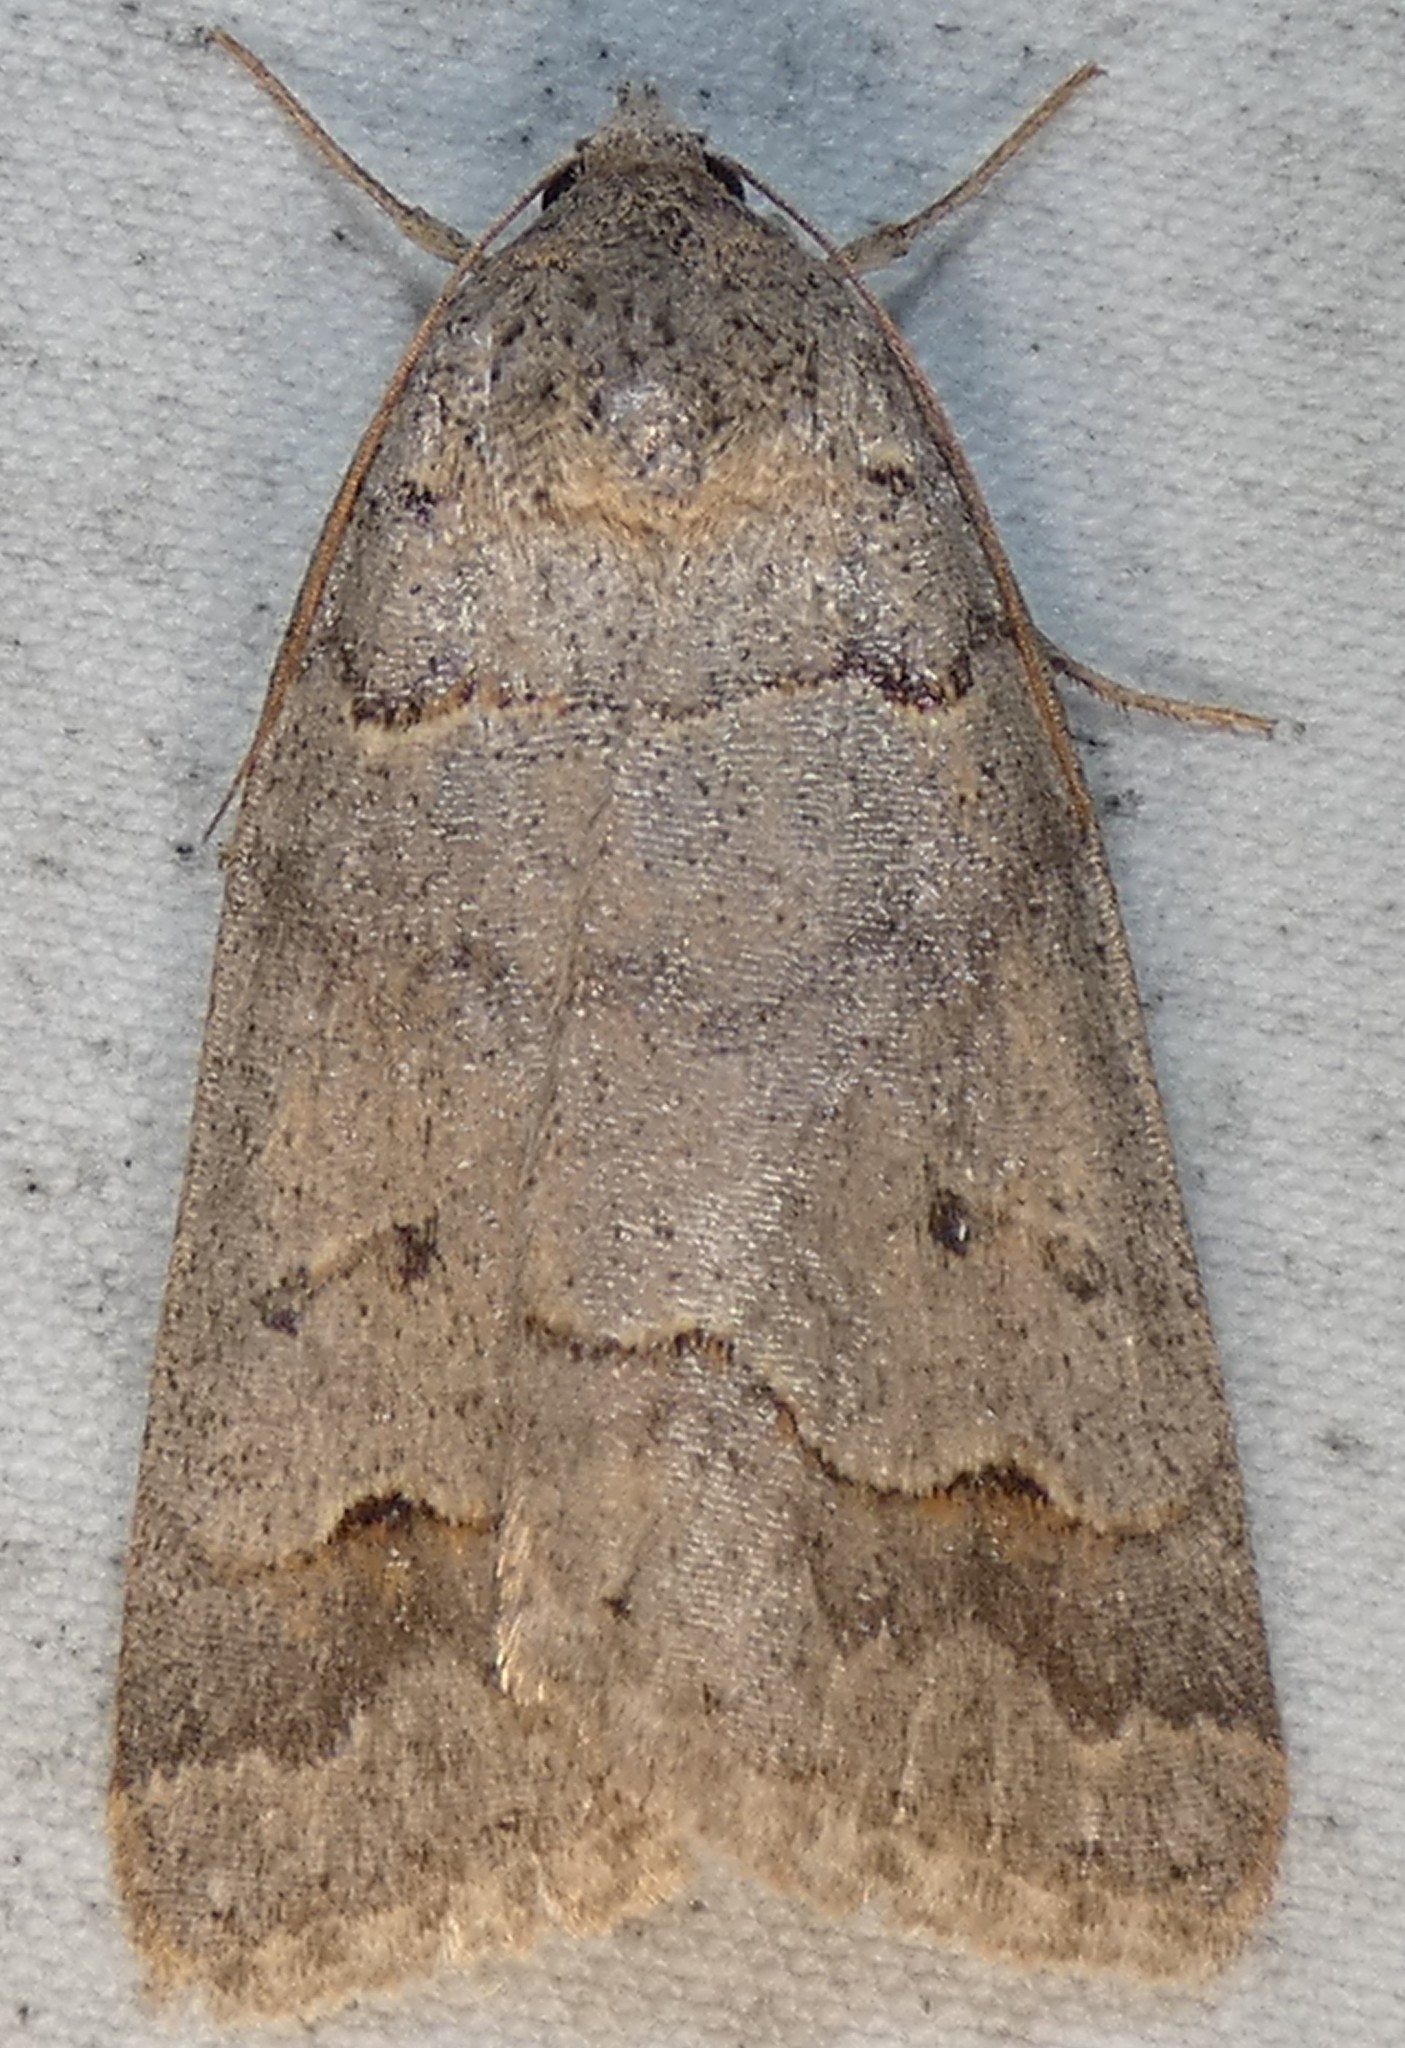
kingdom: Animalia
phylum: Arthropoda
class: Insecta
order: Lepidoptera
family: Erebidae
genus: Phoberia
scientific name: Phoberia atomaris
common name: Common oak moth
